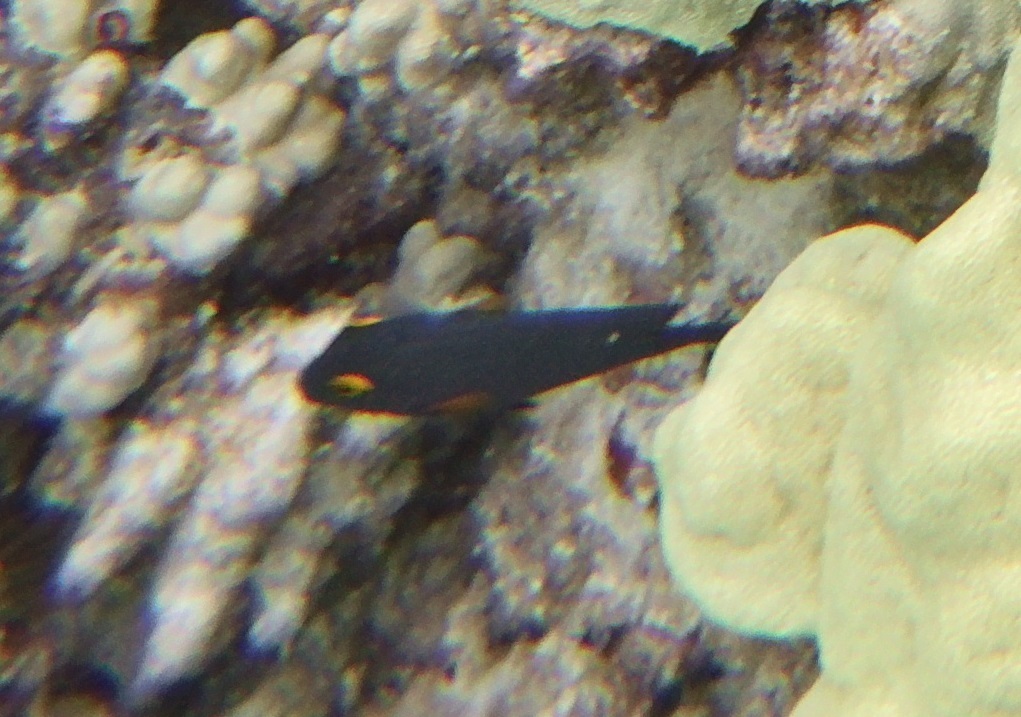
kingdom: Animalia
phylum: Chordata
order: Perciformes
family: Acanthuridae
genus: Ctenochaetus
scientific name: Ctenochaetus strigosus
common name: Bristletoothed surgeonfish
